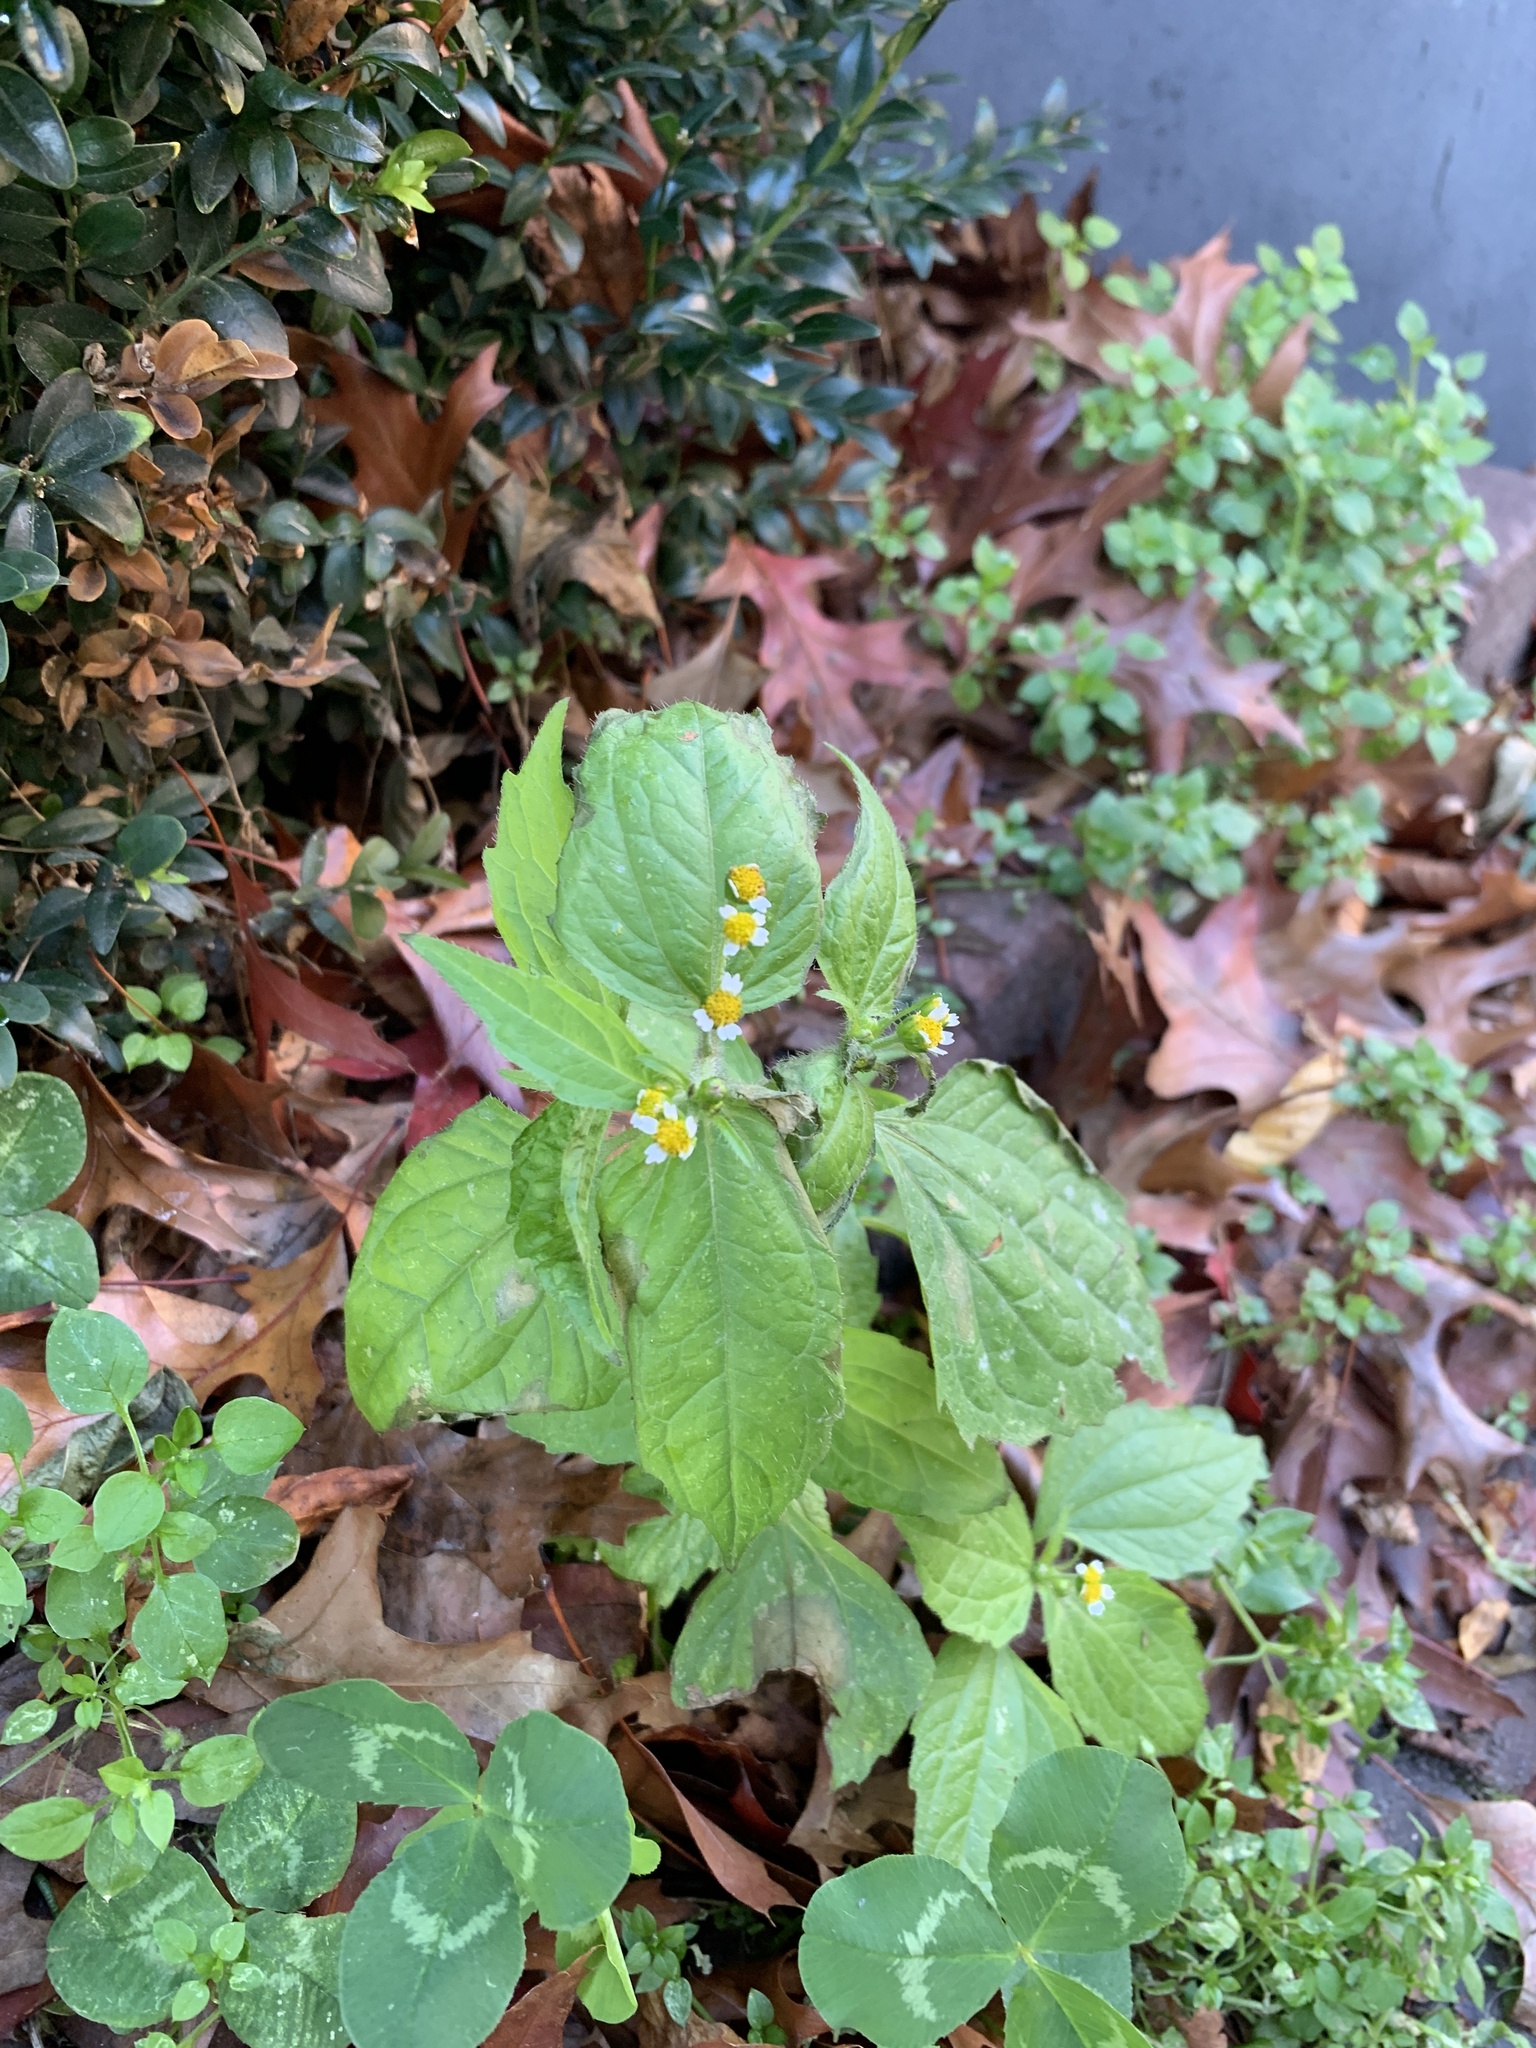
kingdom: Plantae
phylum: Tracheophyta
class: Magnoliopsida
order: Asterales
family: Asteraceae
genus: Galinsoga
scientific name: Galinsoga quadriradiata
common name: Shaggy soldier
